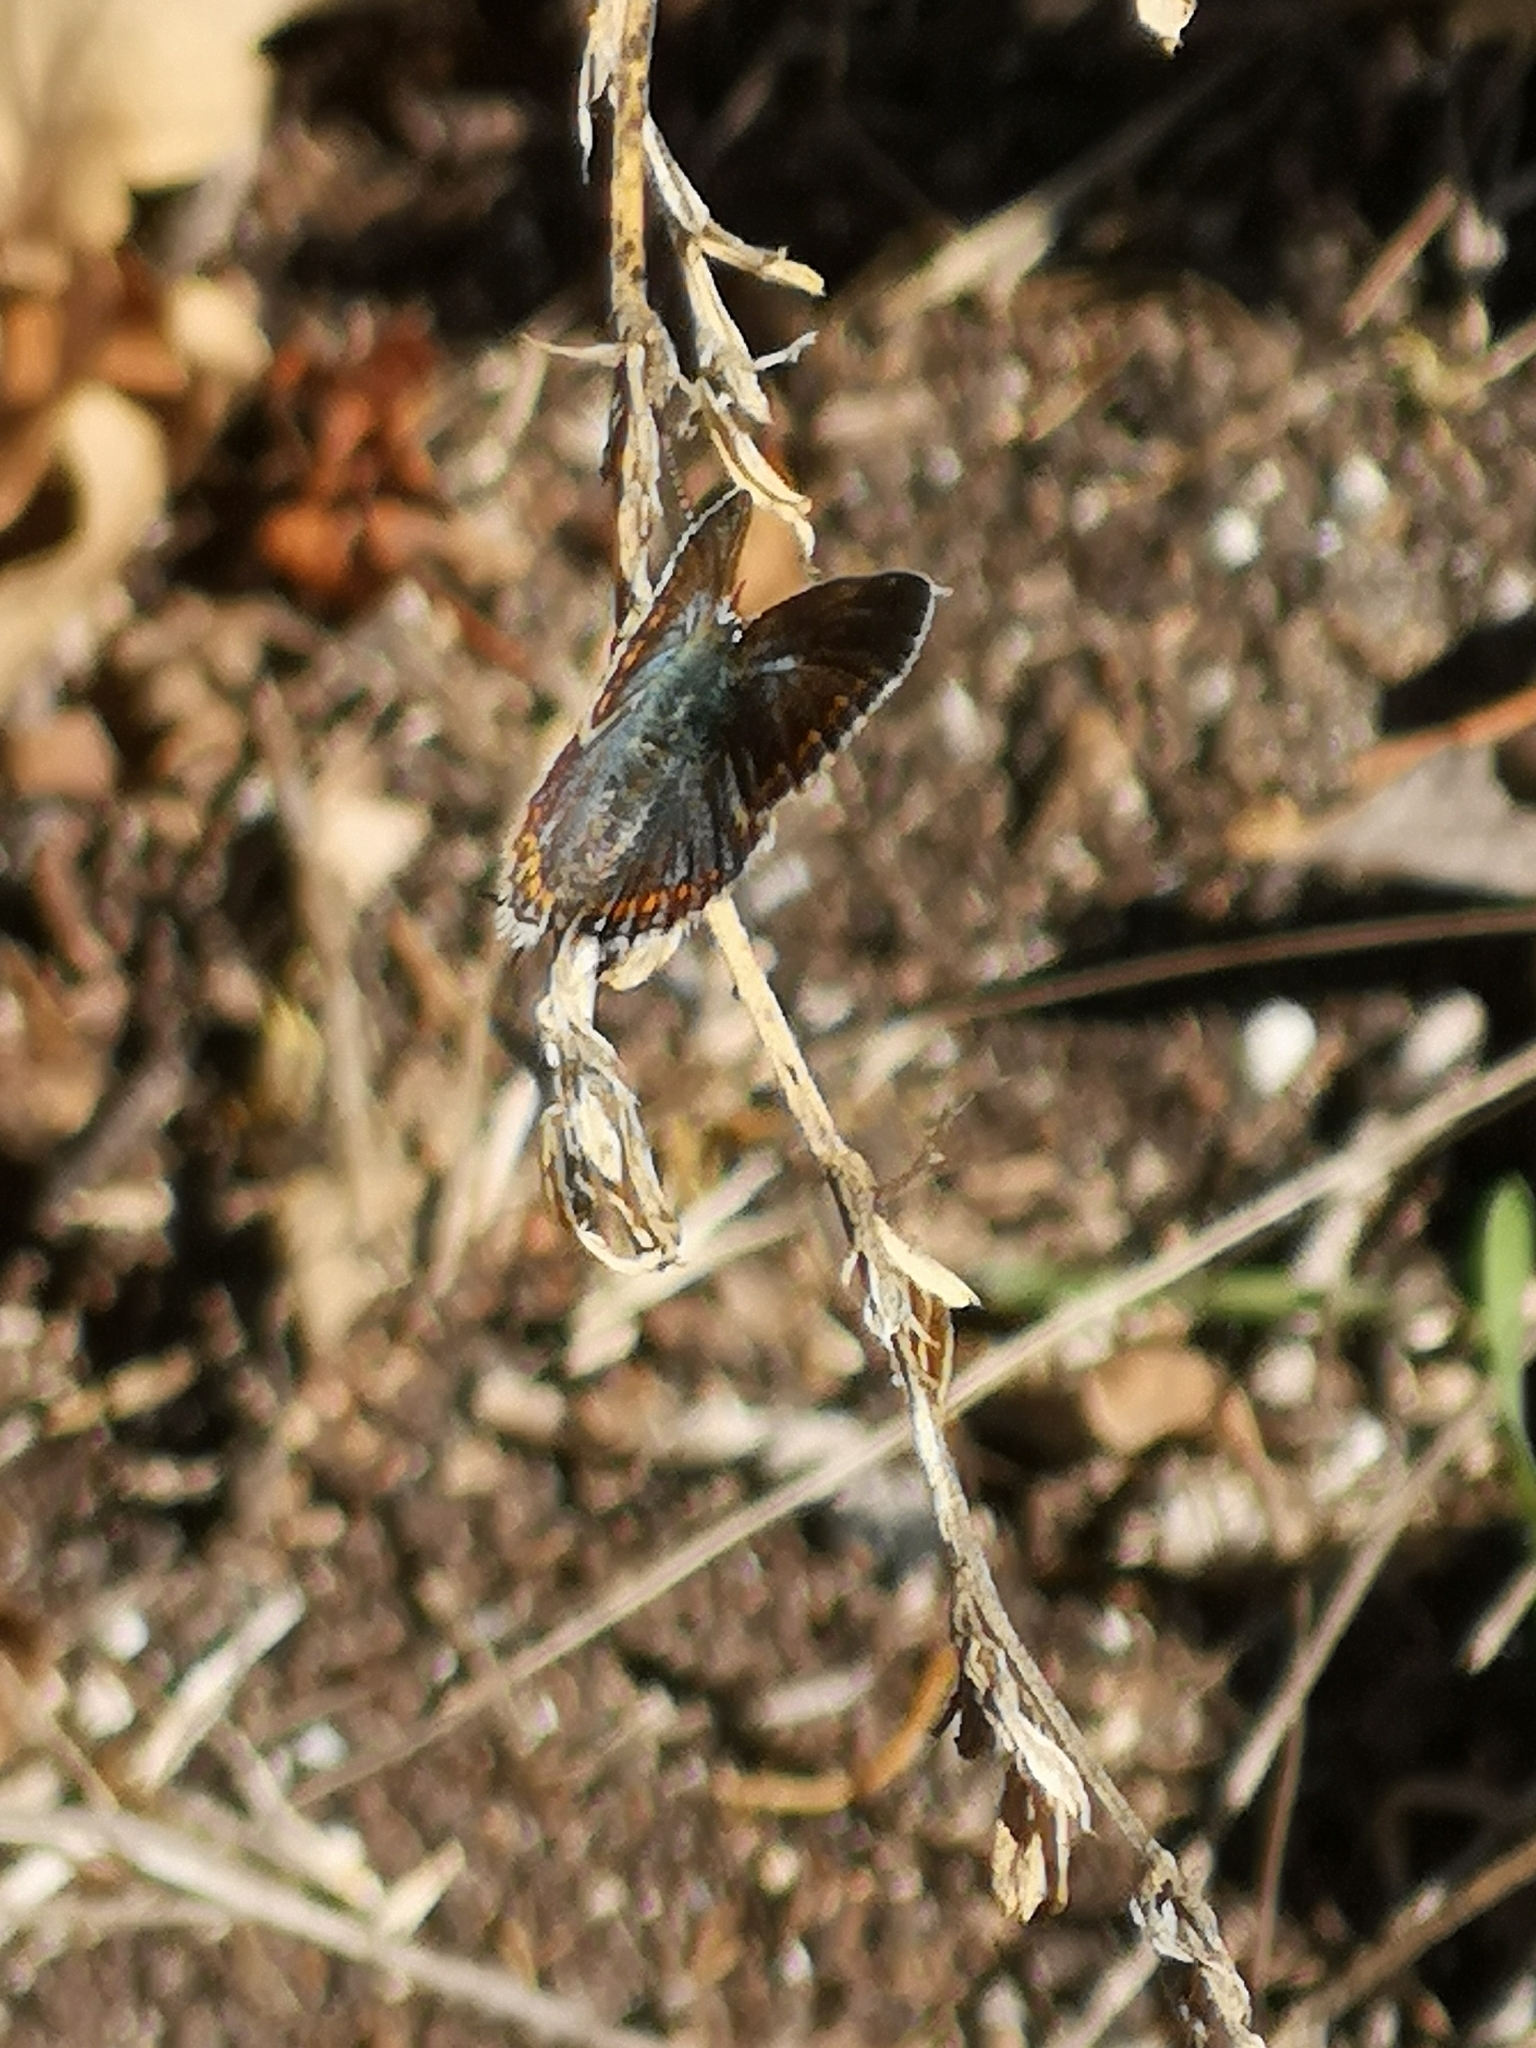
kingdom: Animalia
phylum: Arthropoda
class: Insecta
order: Lepidoptera
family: Lycaenidae
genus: Polyommatus
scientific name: Polyommatus icarus
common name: Common blue
